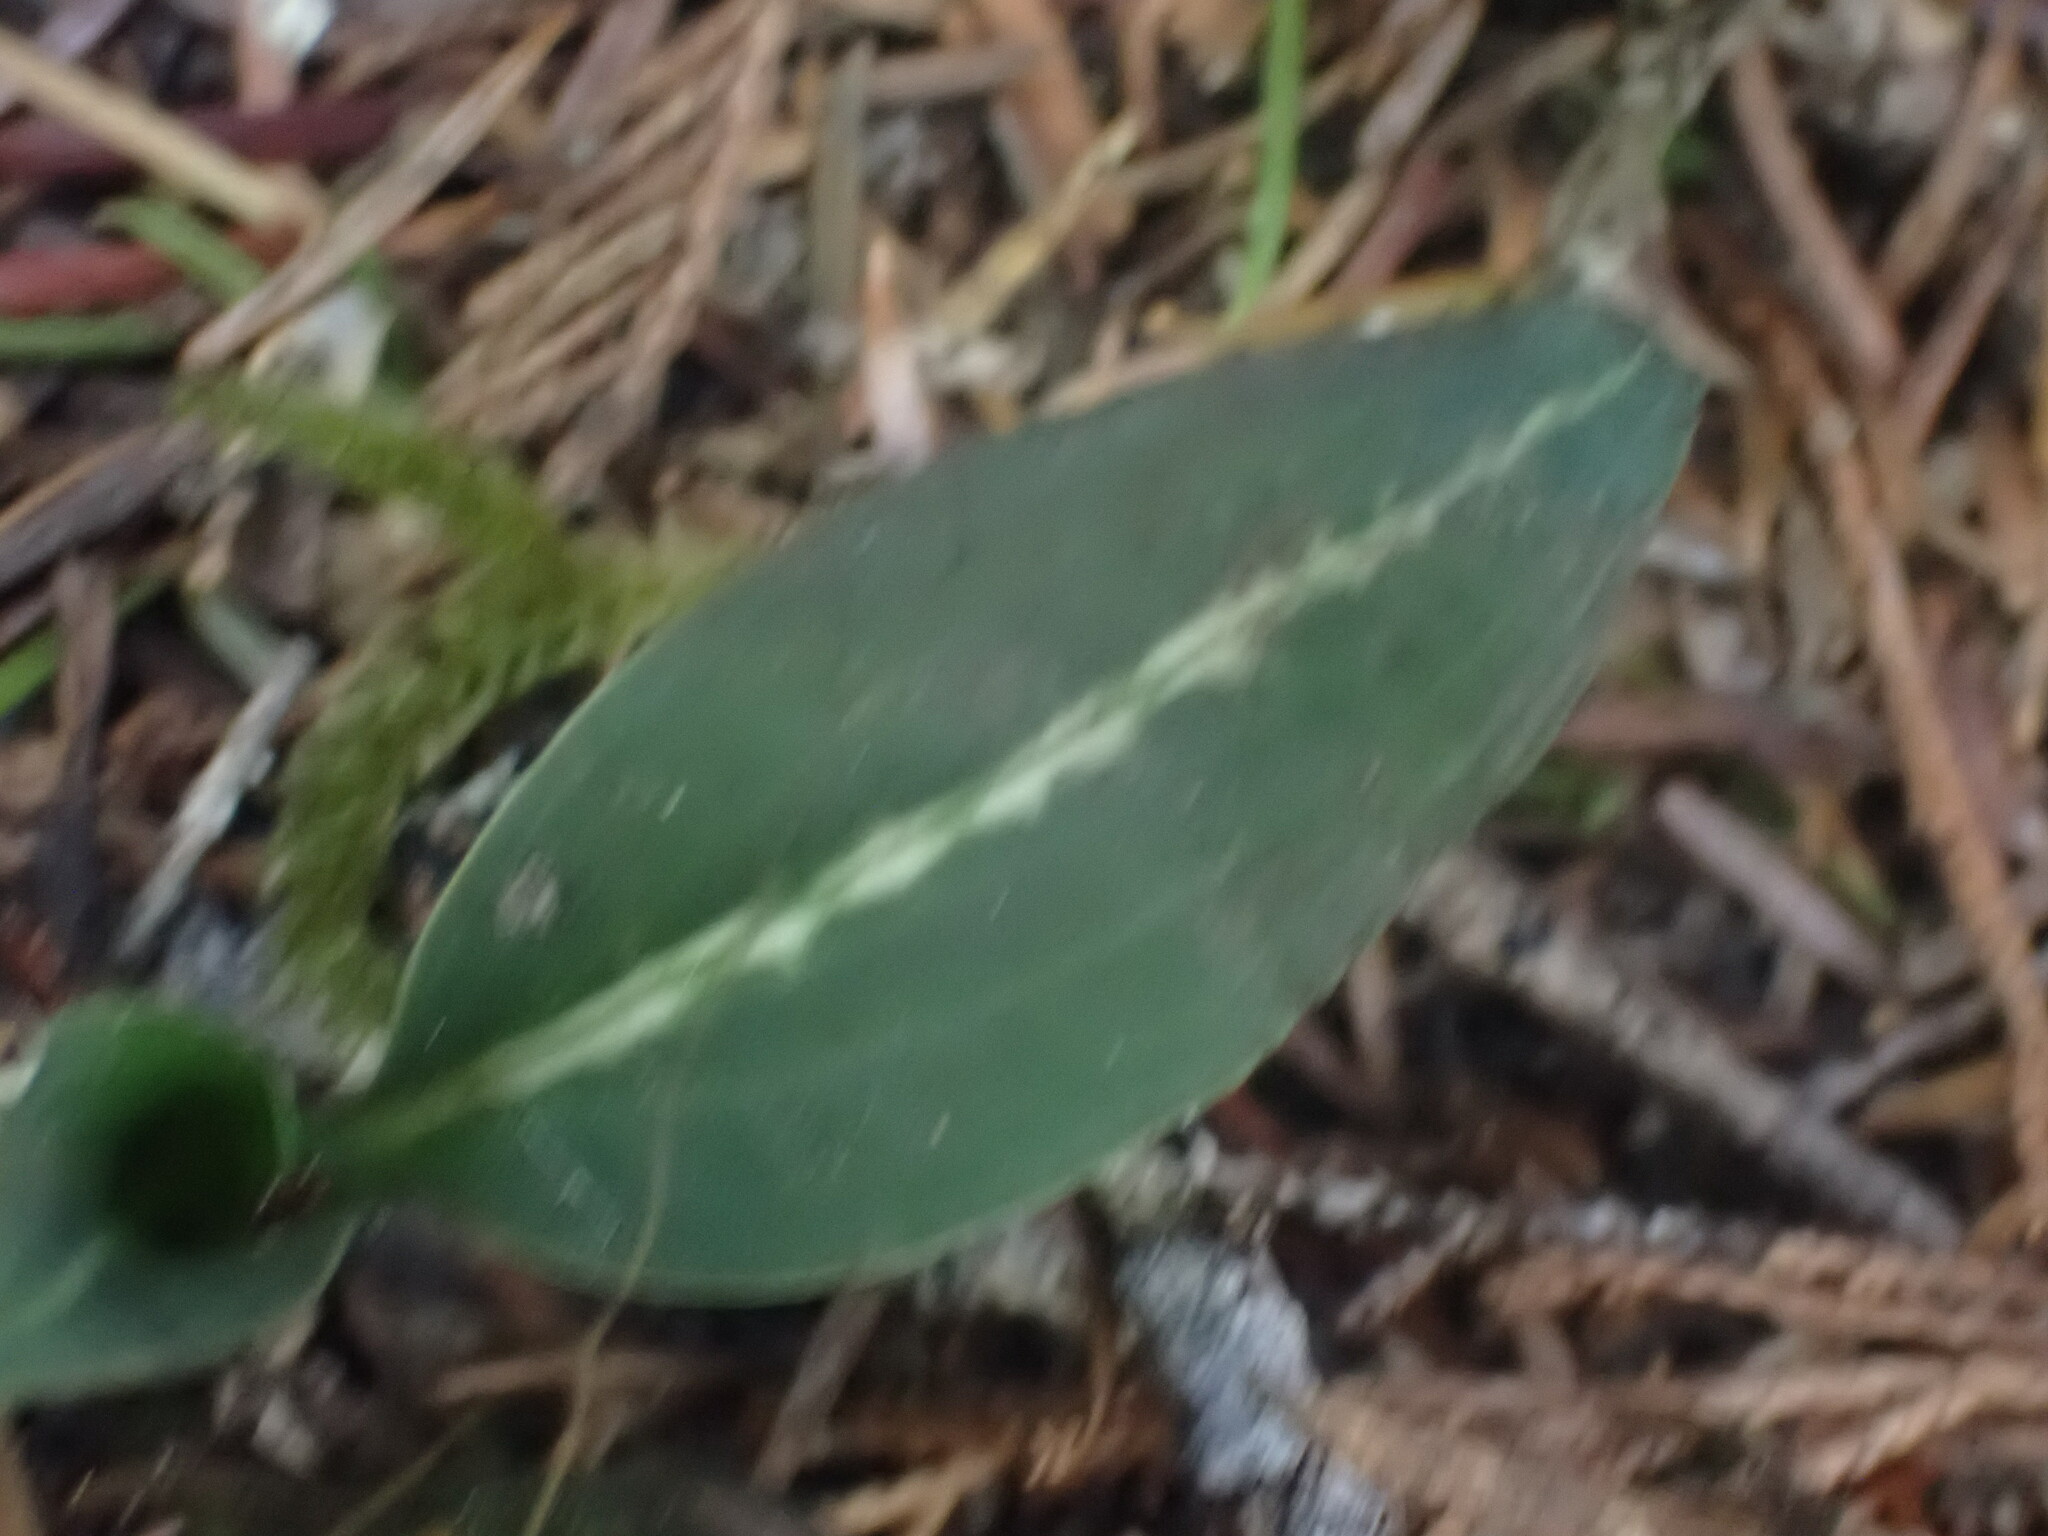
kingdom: Plantae
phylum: Tracheophyta
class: Liliopsida
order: Asparagales
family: Orchidaceae
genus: Goodyera
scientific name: Goodyera oblongifolia
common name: Giant rattlesnake-plantain
